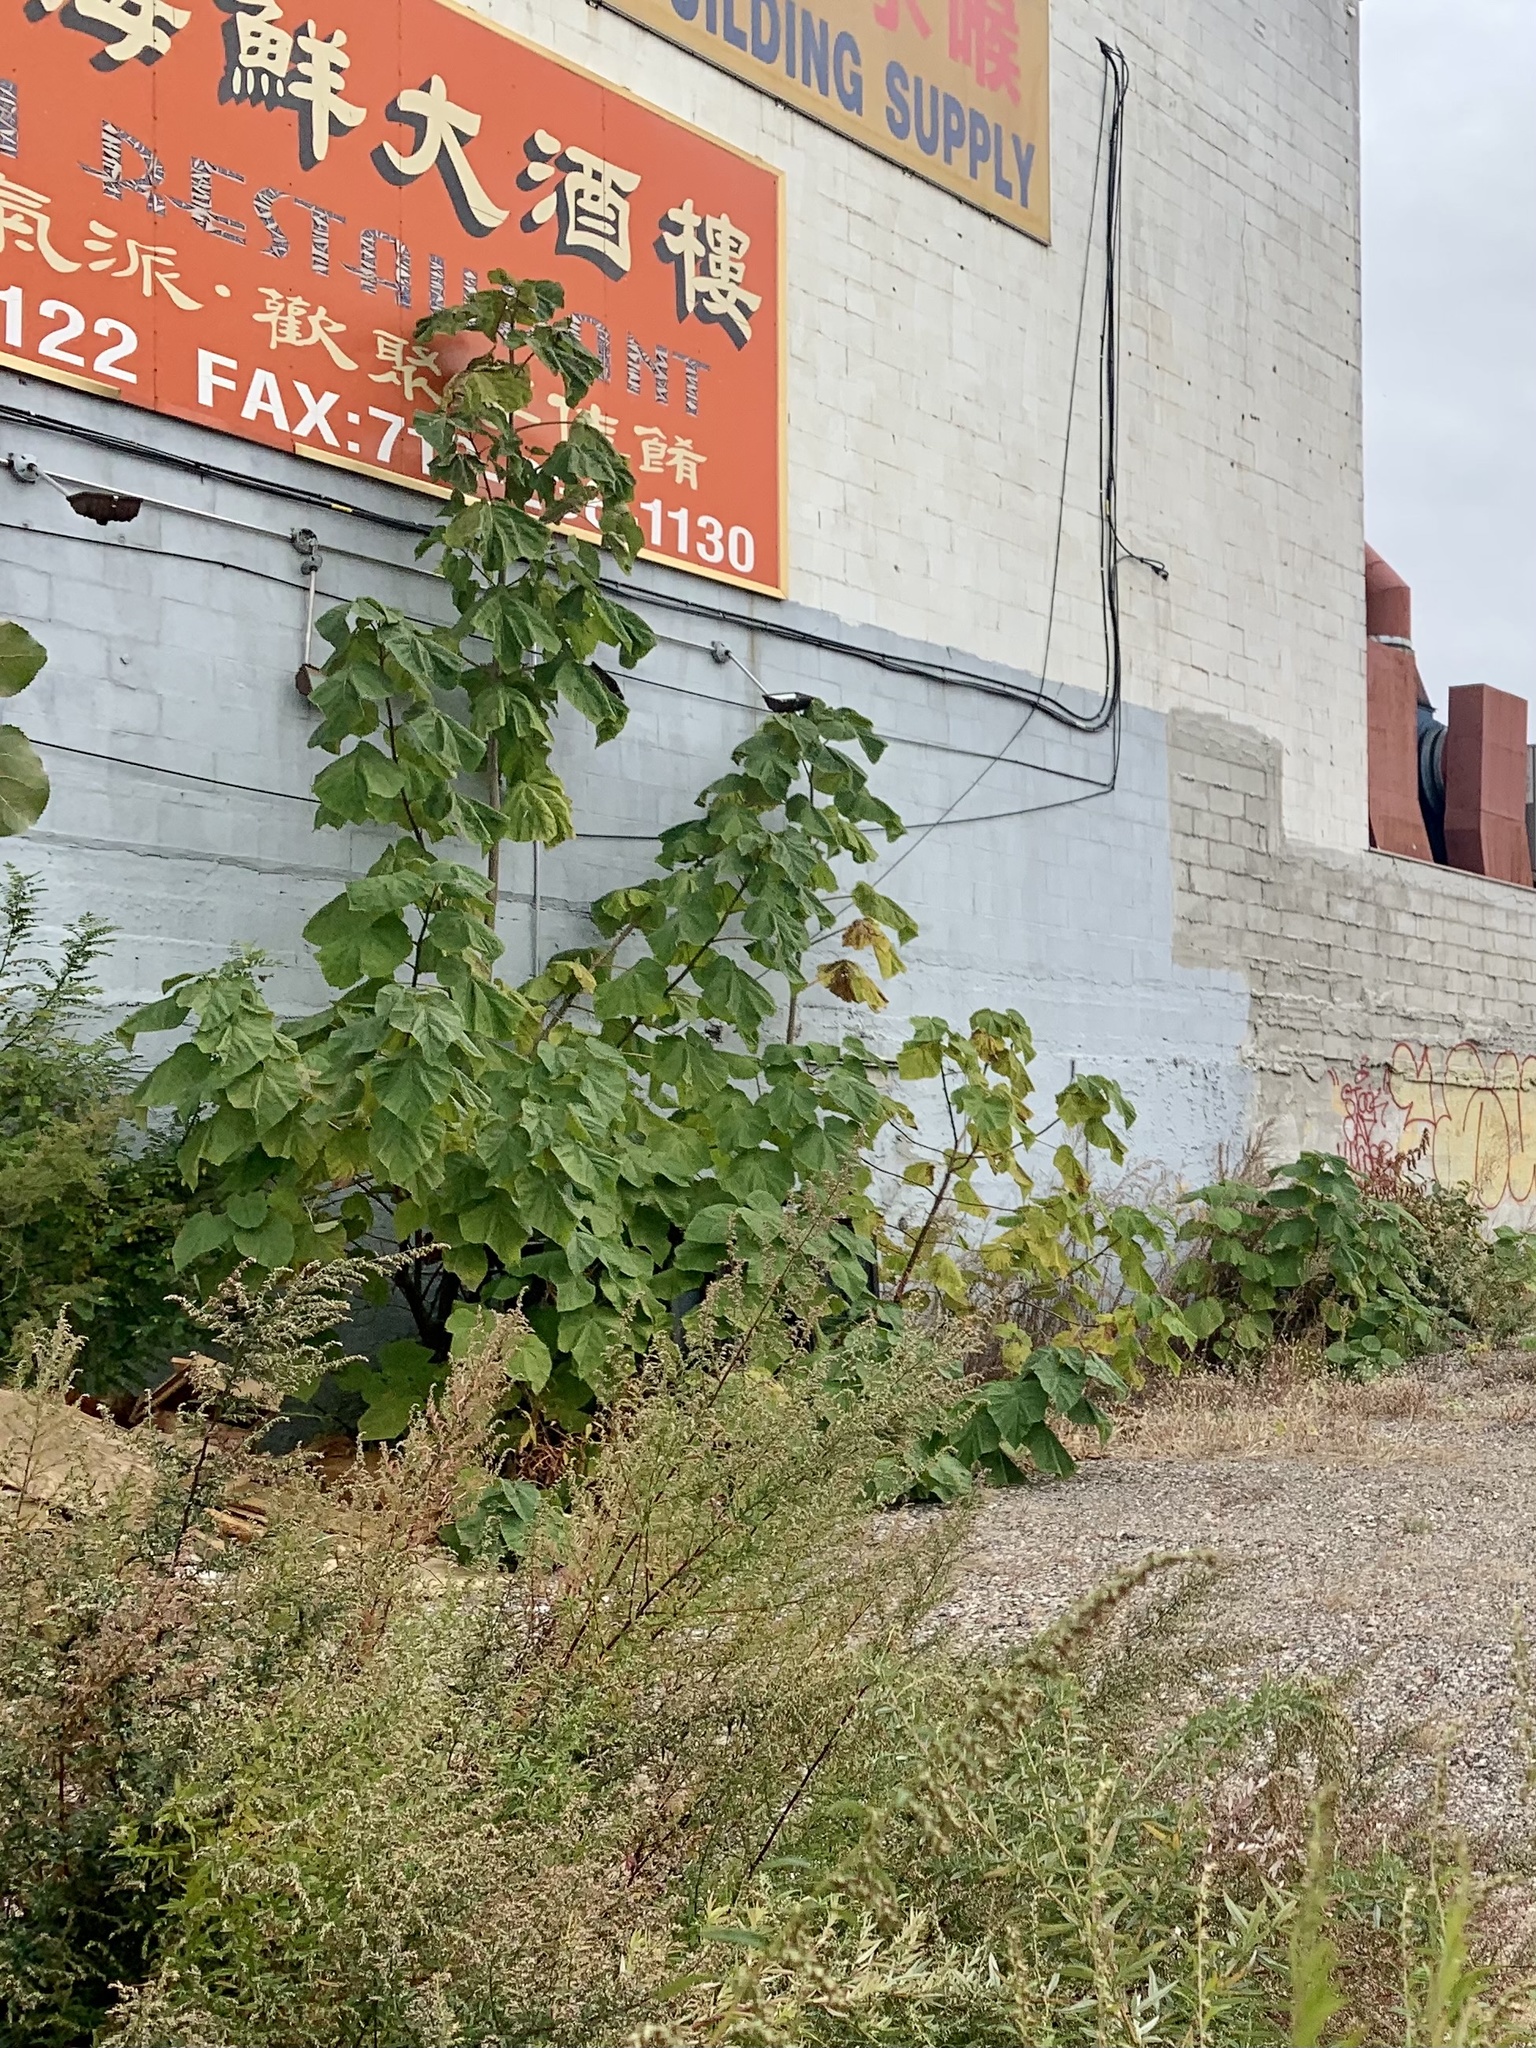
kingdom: Plantae
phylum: Tracheophyta
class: Magnoliopsida
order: Lamiales
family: Paulowniaceae
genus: Paulownia
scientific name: Paulownia tomentosa
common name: Foxglove-tree
